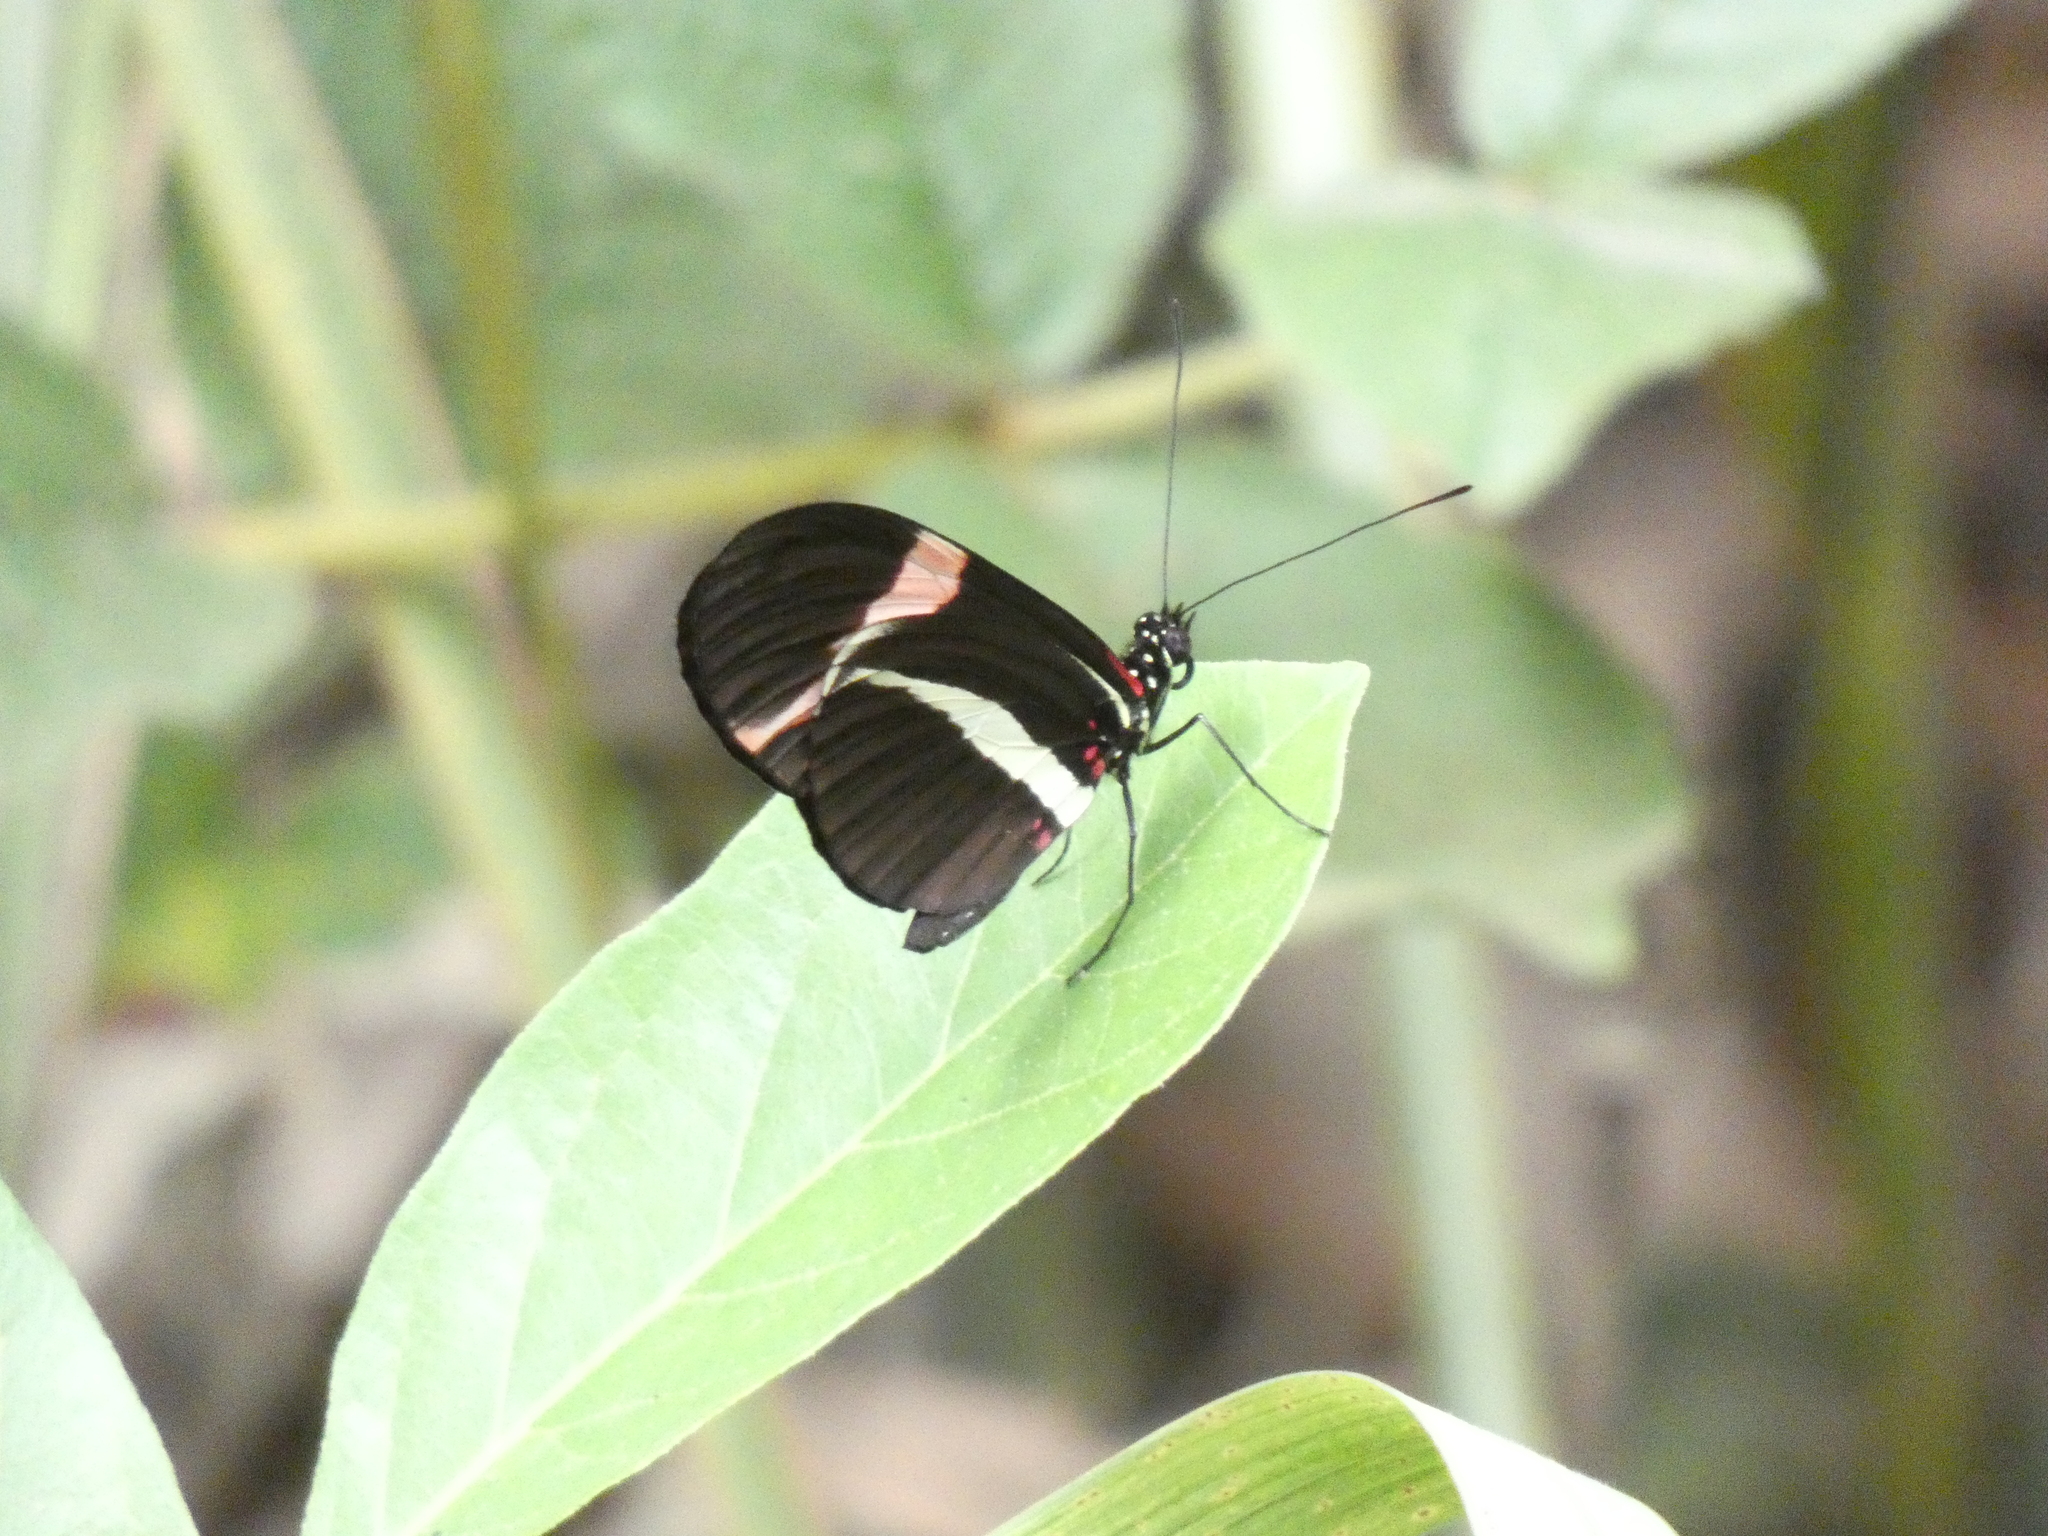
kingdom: Animalia
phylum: Arthropoda
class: Insecta
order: Lepidoptera
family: Nymphalidae
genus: Heliconius
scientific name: Heliconius erato
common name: Common patch longwing
